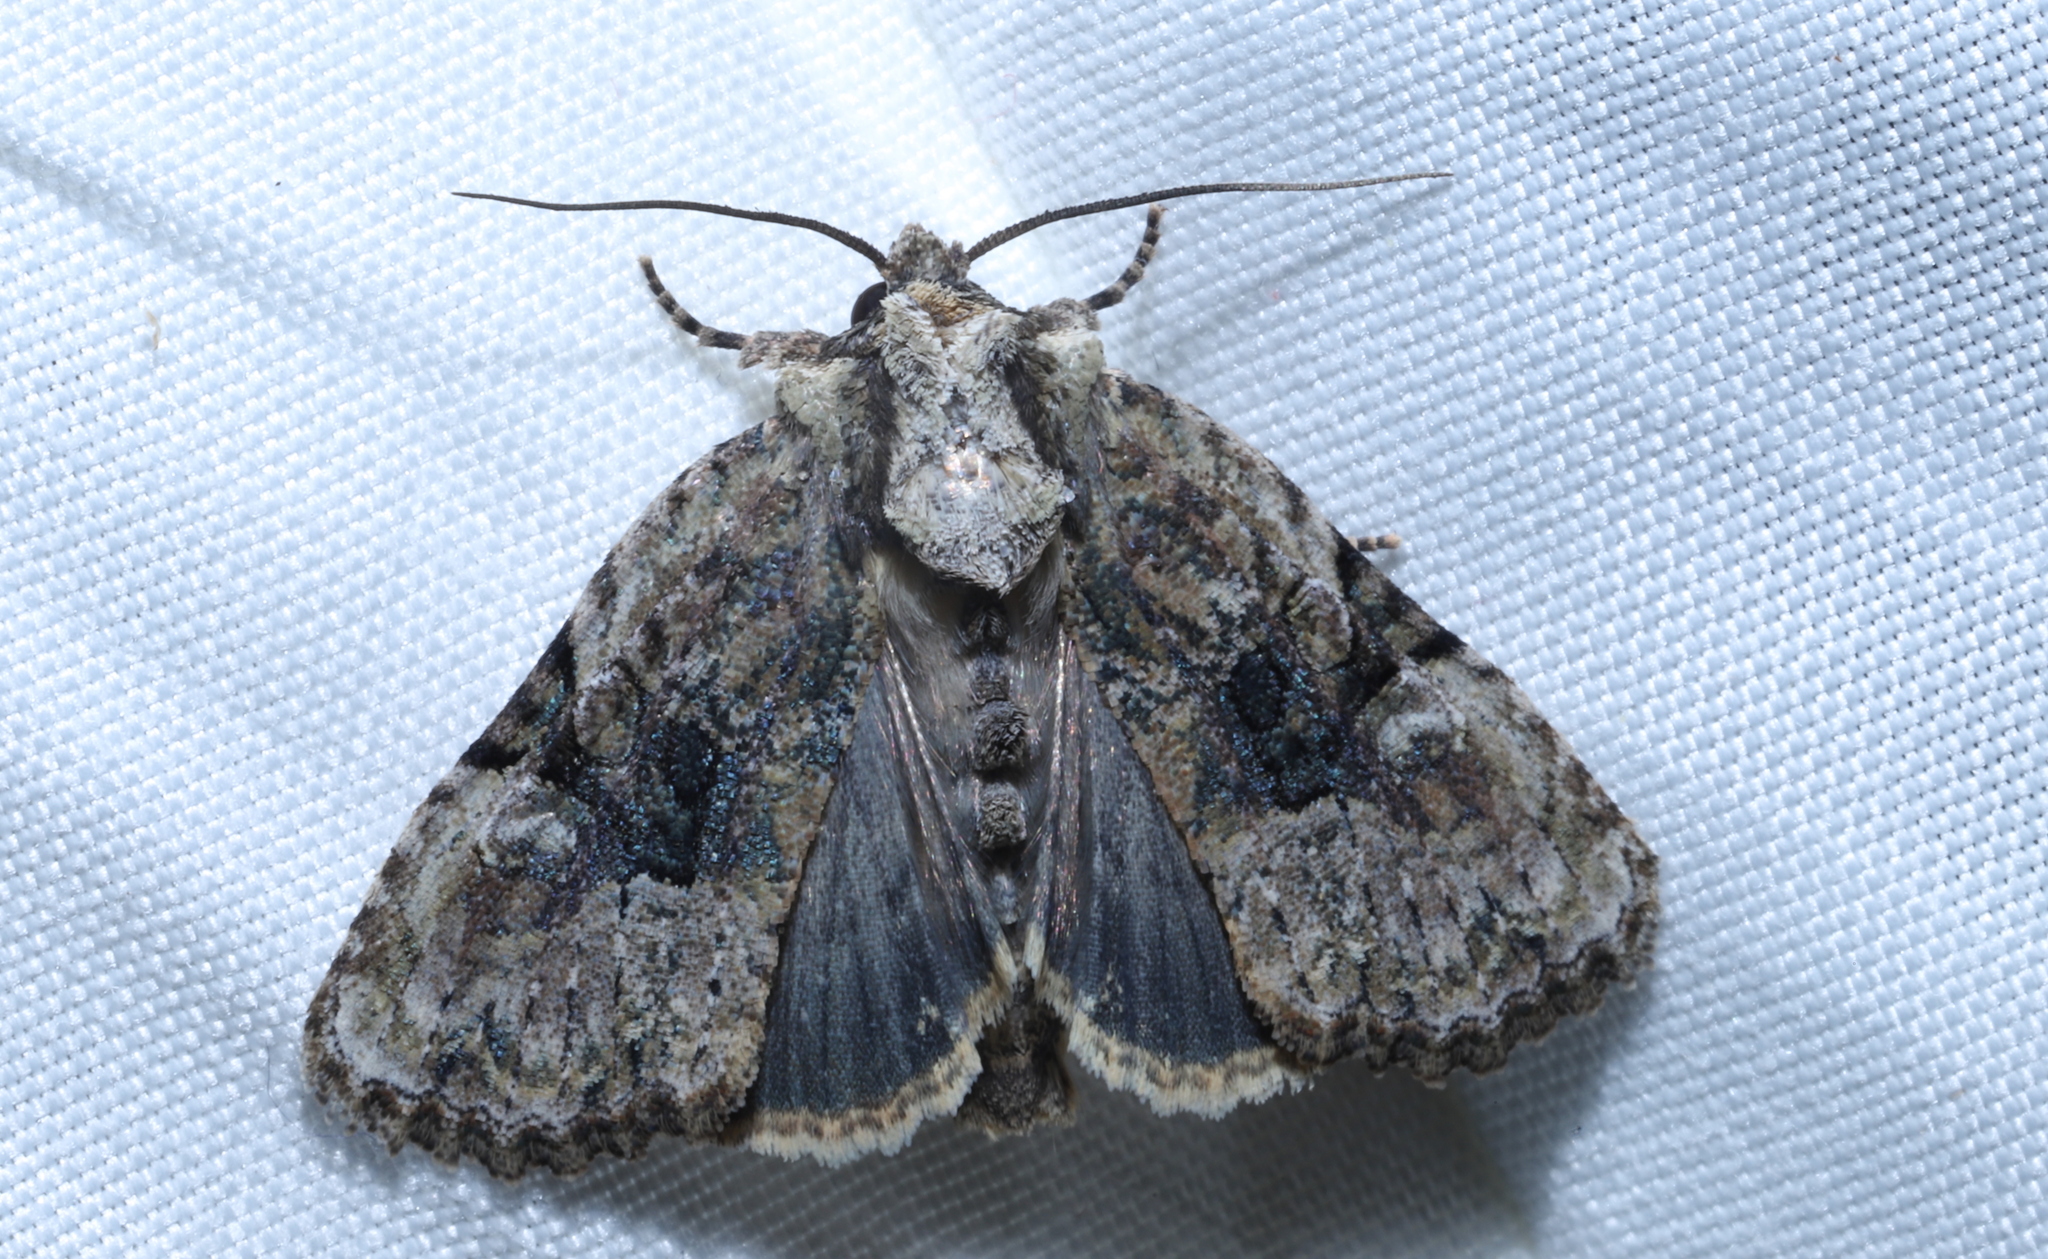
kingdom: Animalia
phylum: Arthropoda
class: Insecta
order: Lepidoptera
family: Noctuidae
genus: Oligia
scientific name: Oligia modica
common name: Black-banded brocade
